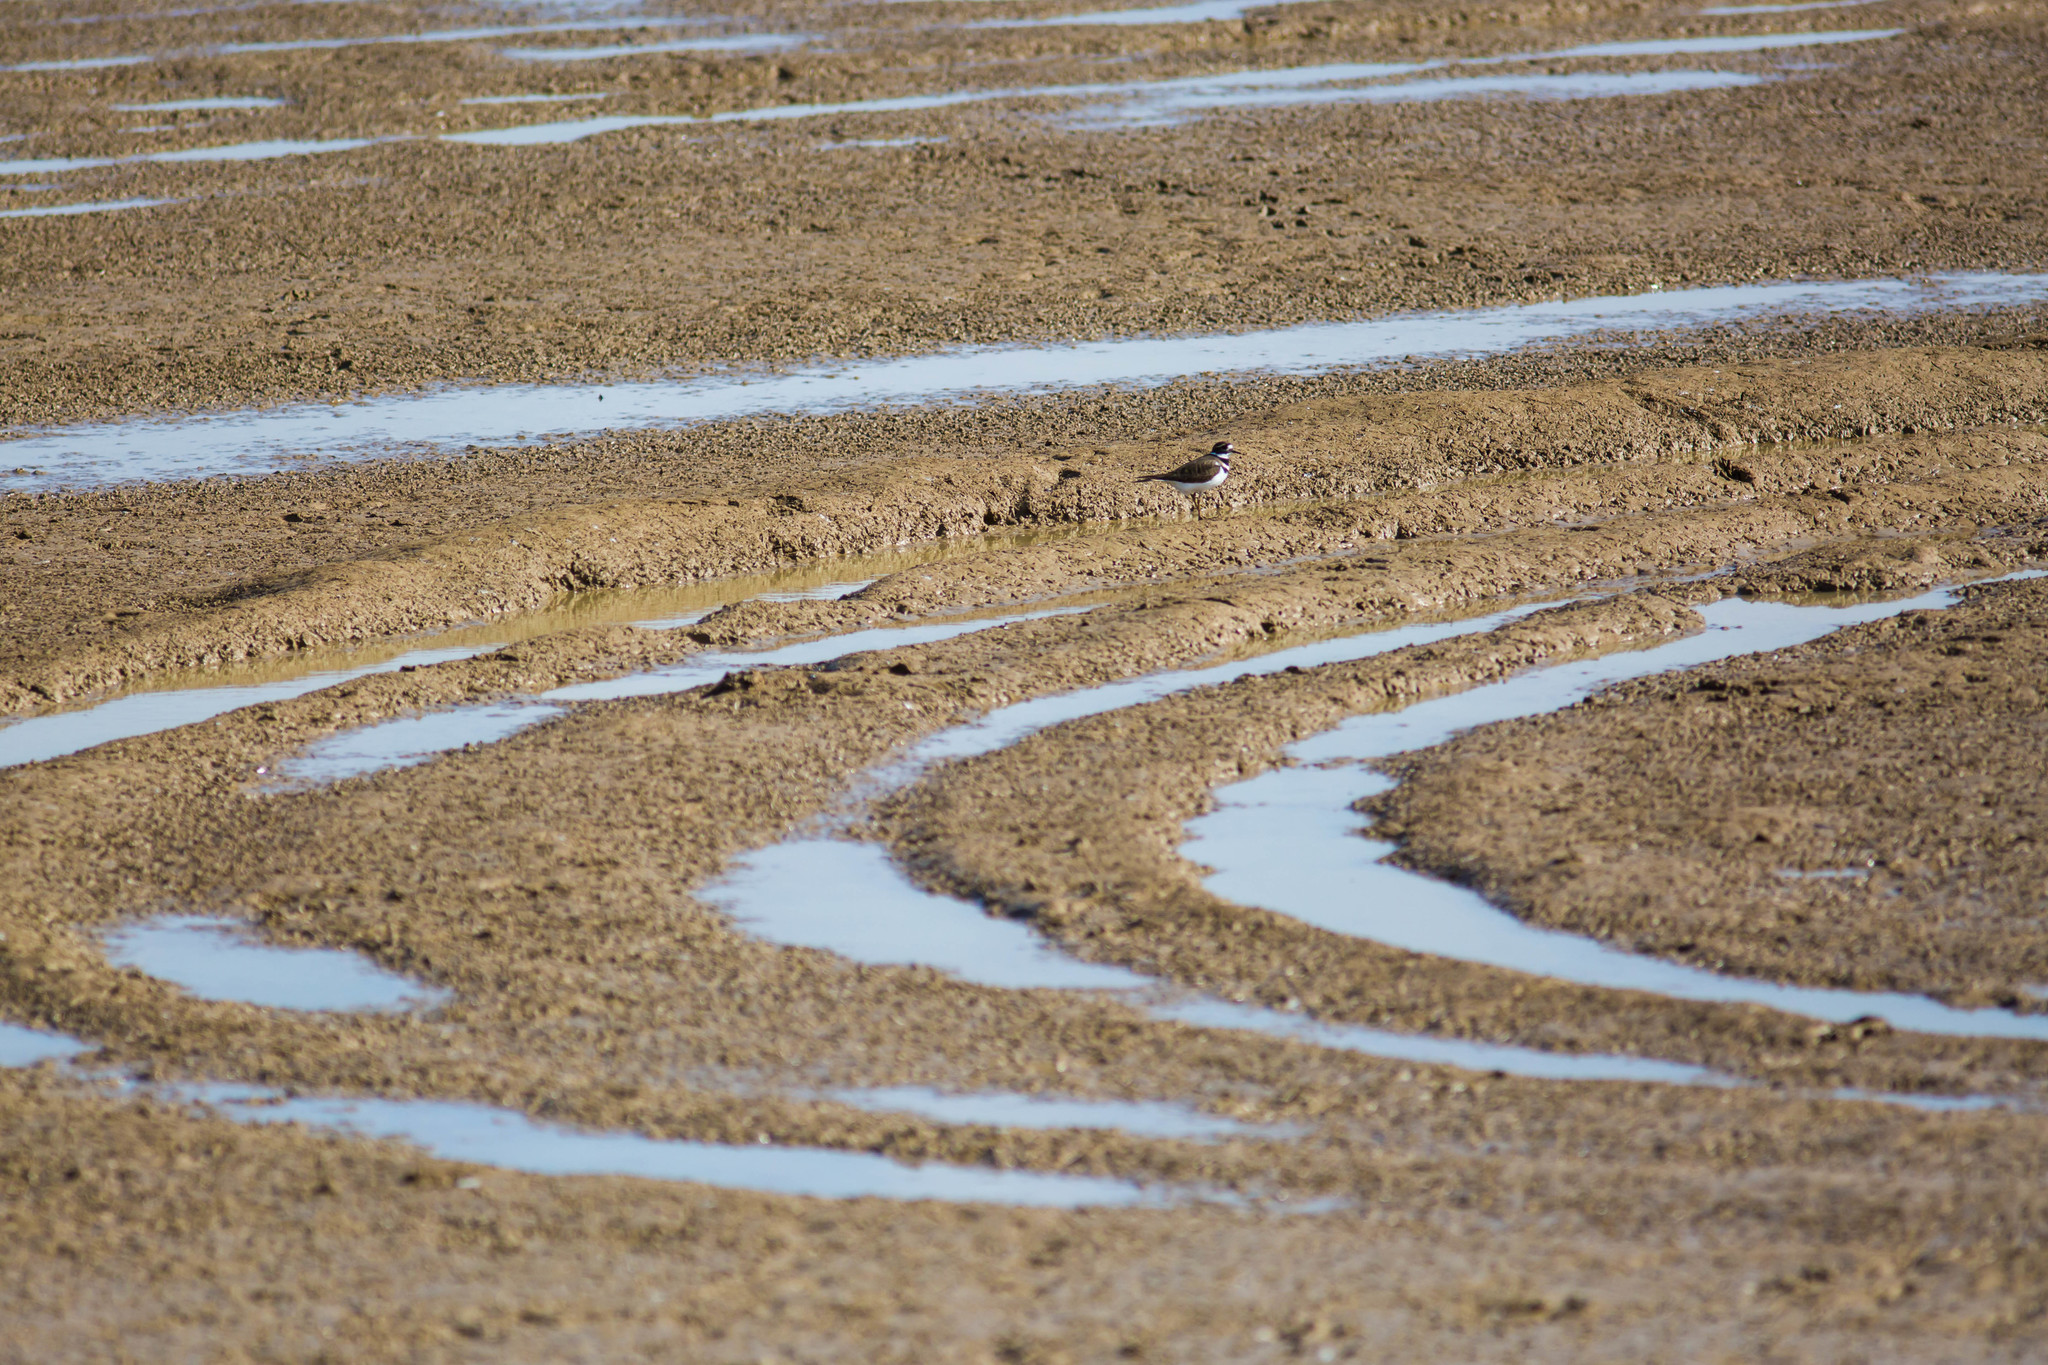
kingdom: Animalia
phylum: Chordata
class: Aves
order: Charadriiformes
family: Charadriidae
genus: Charadrius
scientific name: Charadrius vociferus
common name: Killdeer
